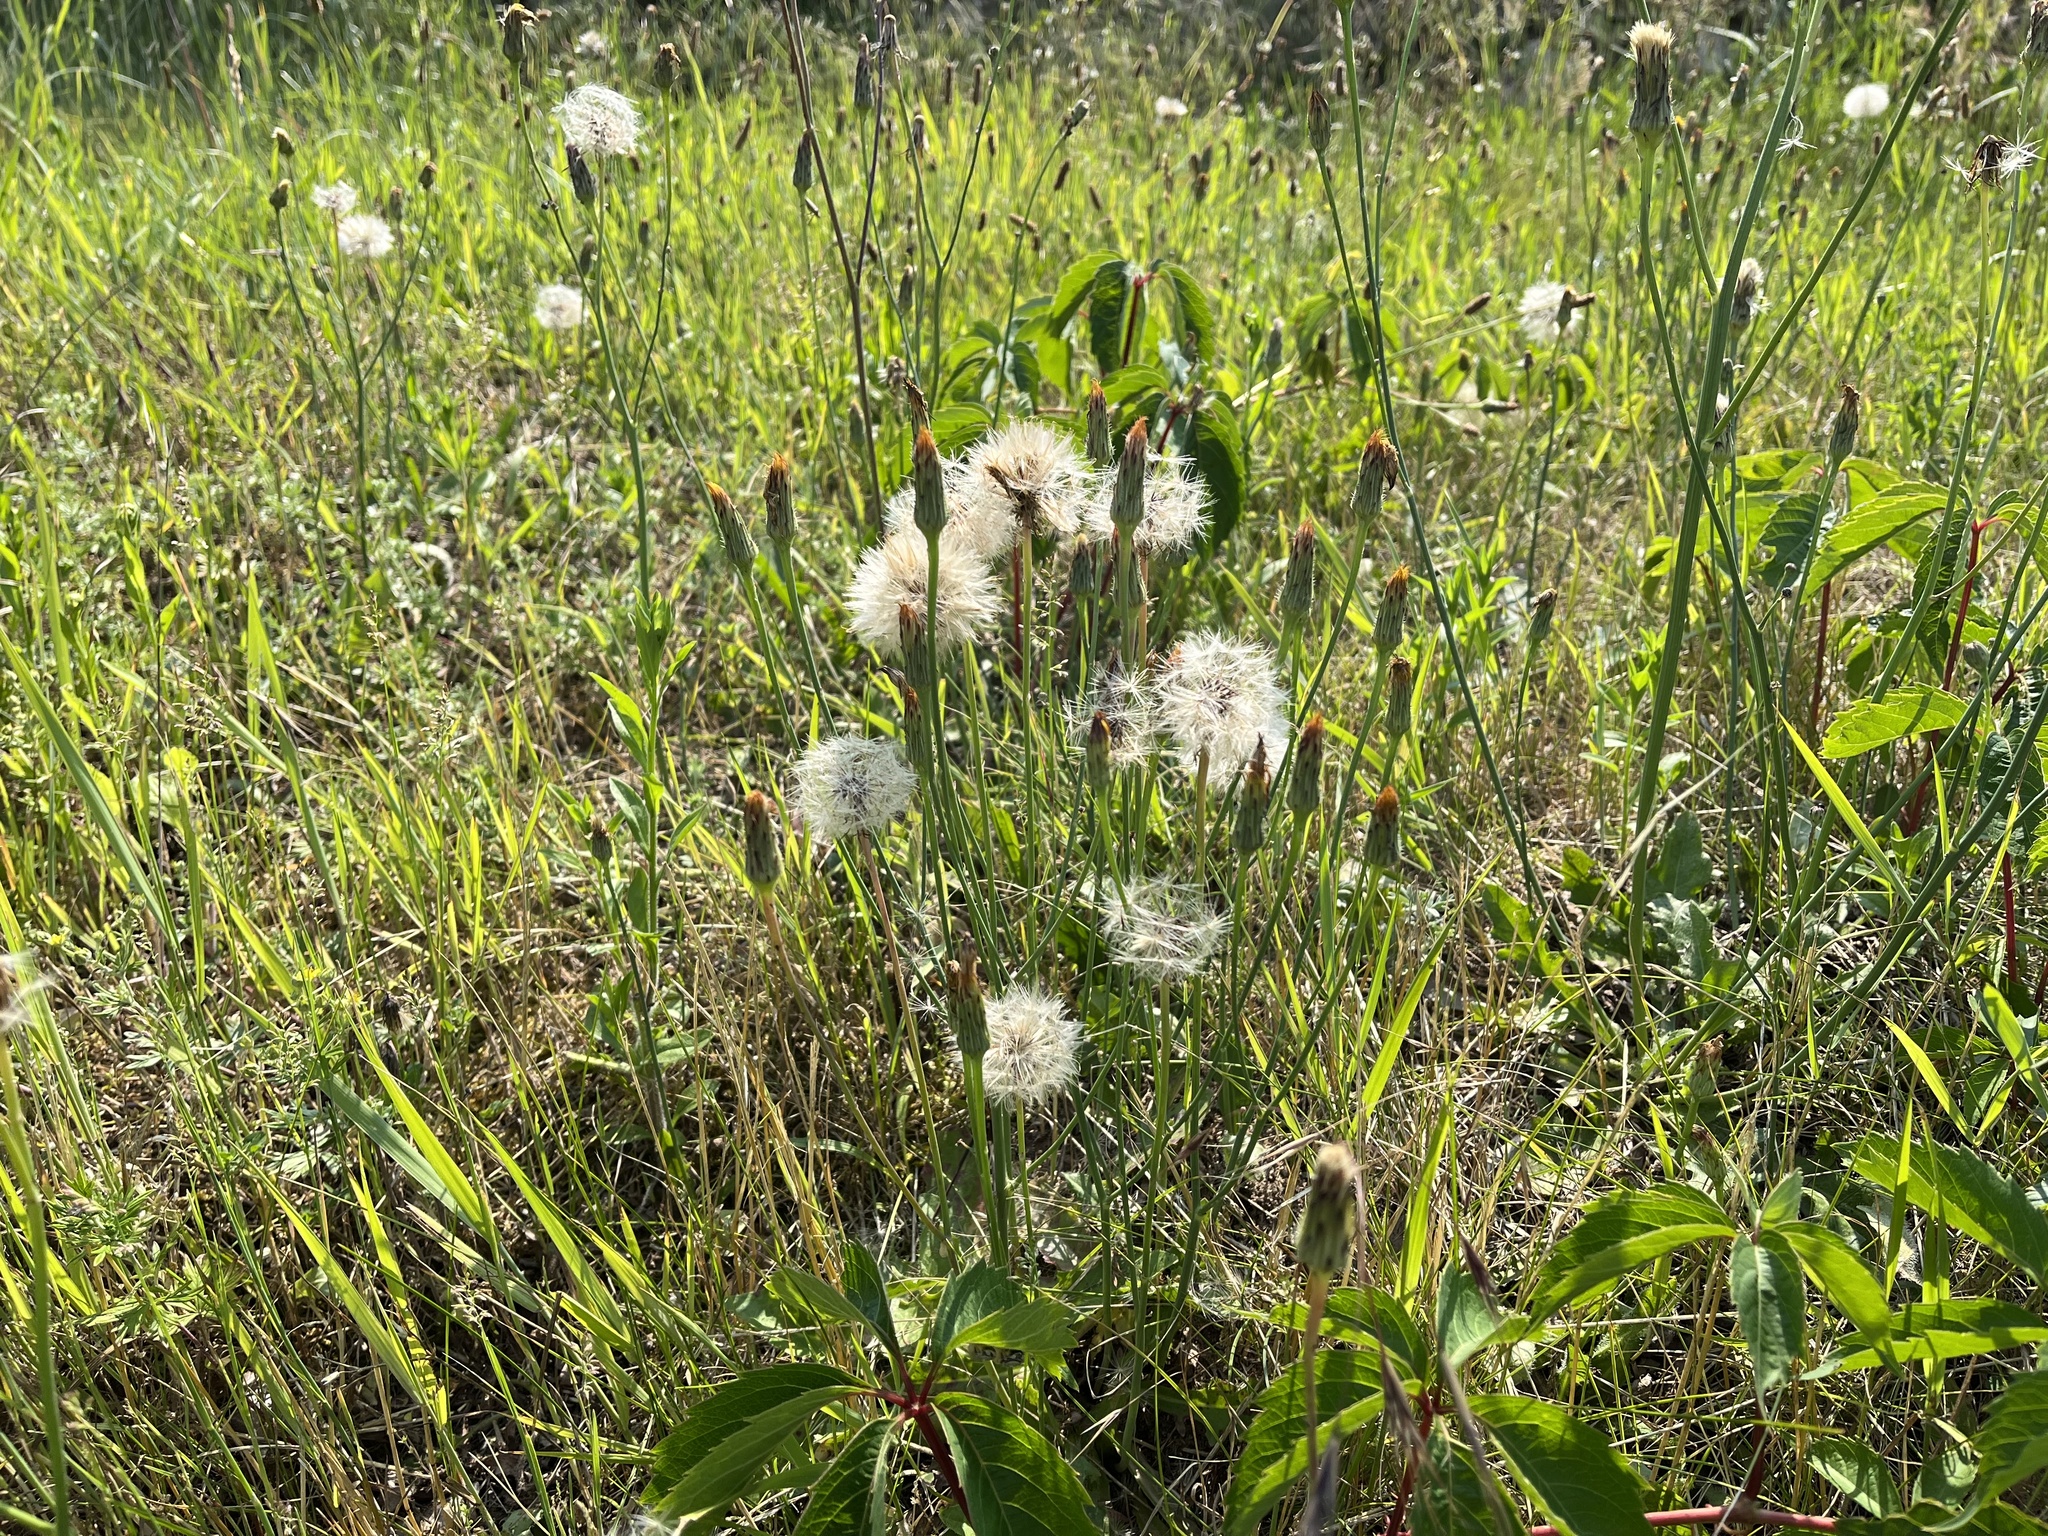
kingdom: Plantae
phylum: Tracheophyta
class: Magnoliopsida
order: Asterales
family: Asteraceae
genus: Hypochaeris
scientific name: Hypochaeris radicata
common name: Flatweed
